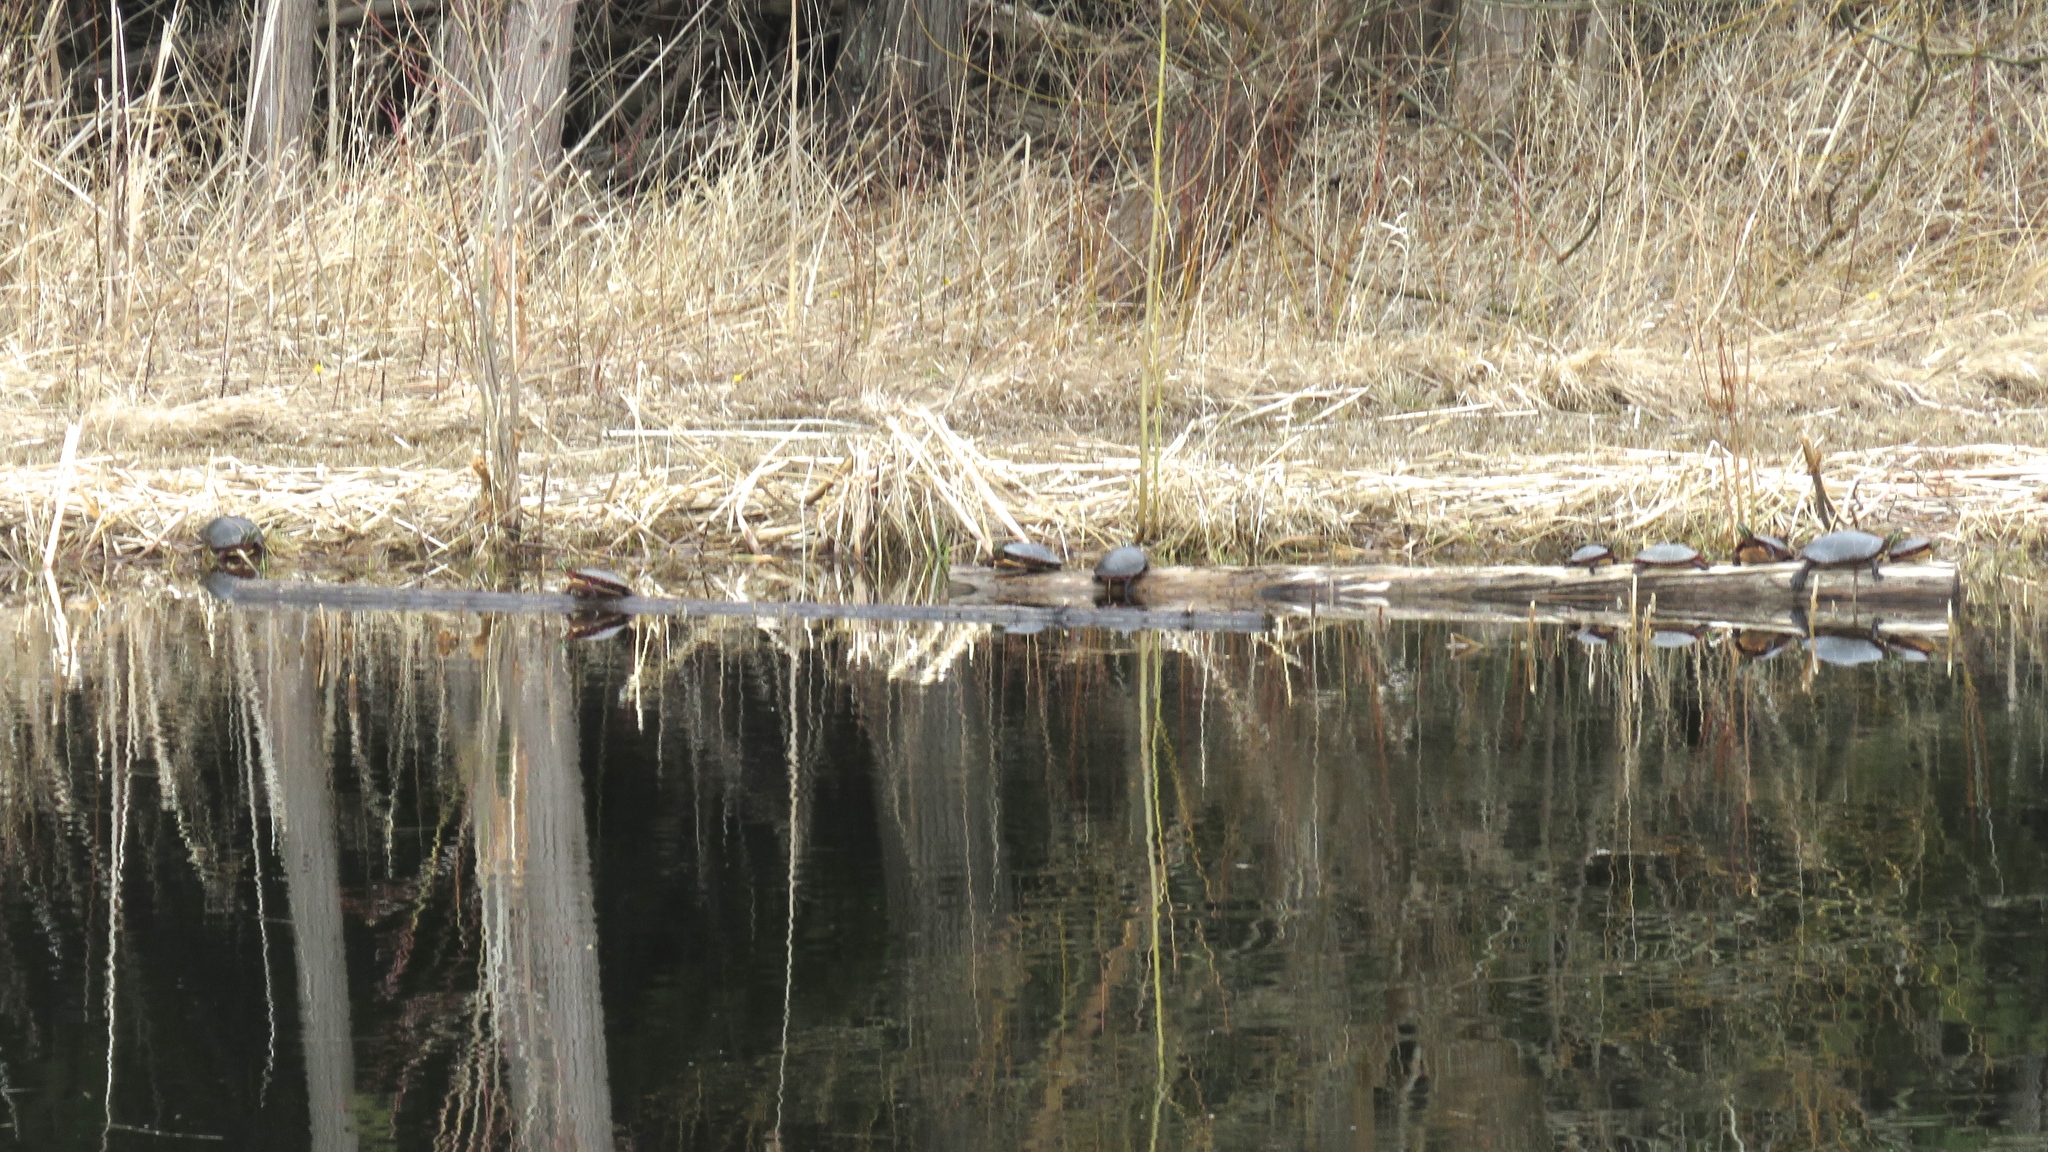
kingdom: Animalia
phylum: Chordata
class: Testudines
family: Emydidae
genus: Chrysemys
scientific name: Chrysemys picta
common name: Painted turtle
